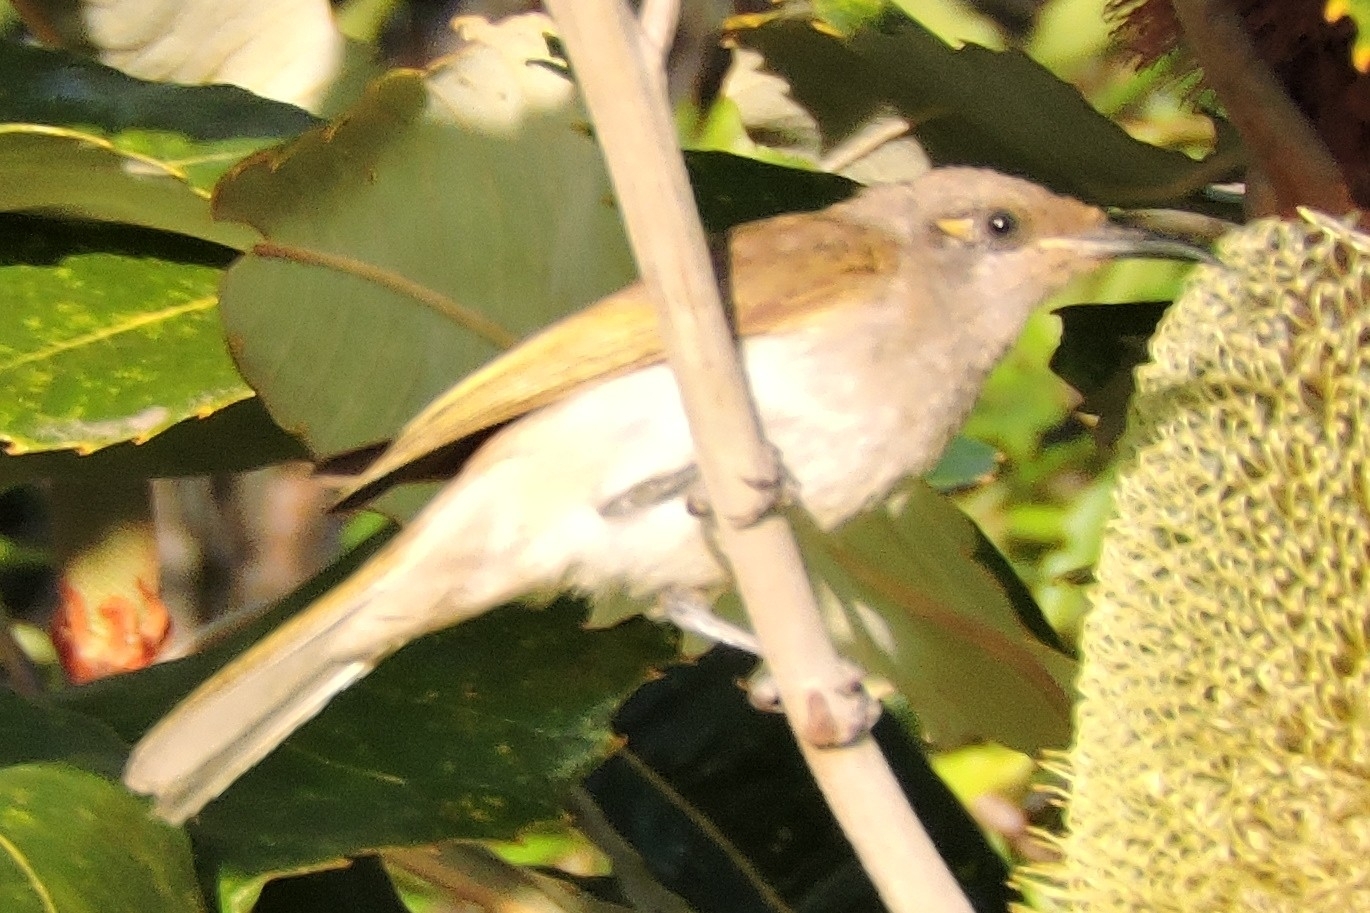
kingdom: Animalia
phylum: Chordata
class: Aves
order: Passeriformes
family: Meliphagidae
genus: Lichmera
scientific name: Lichmera indistincta
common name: Brown honeyeater
